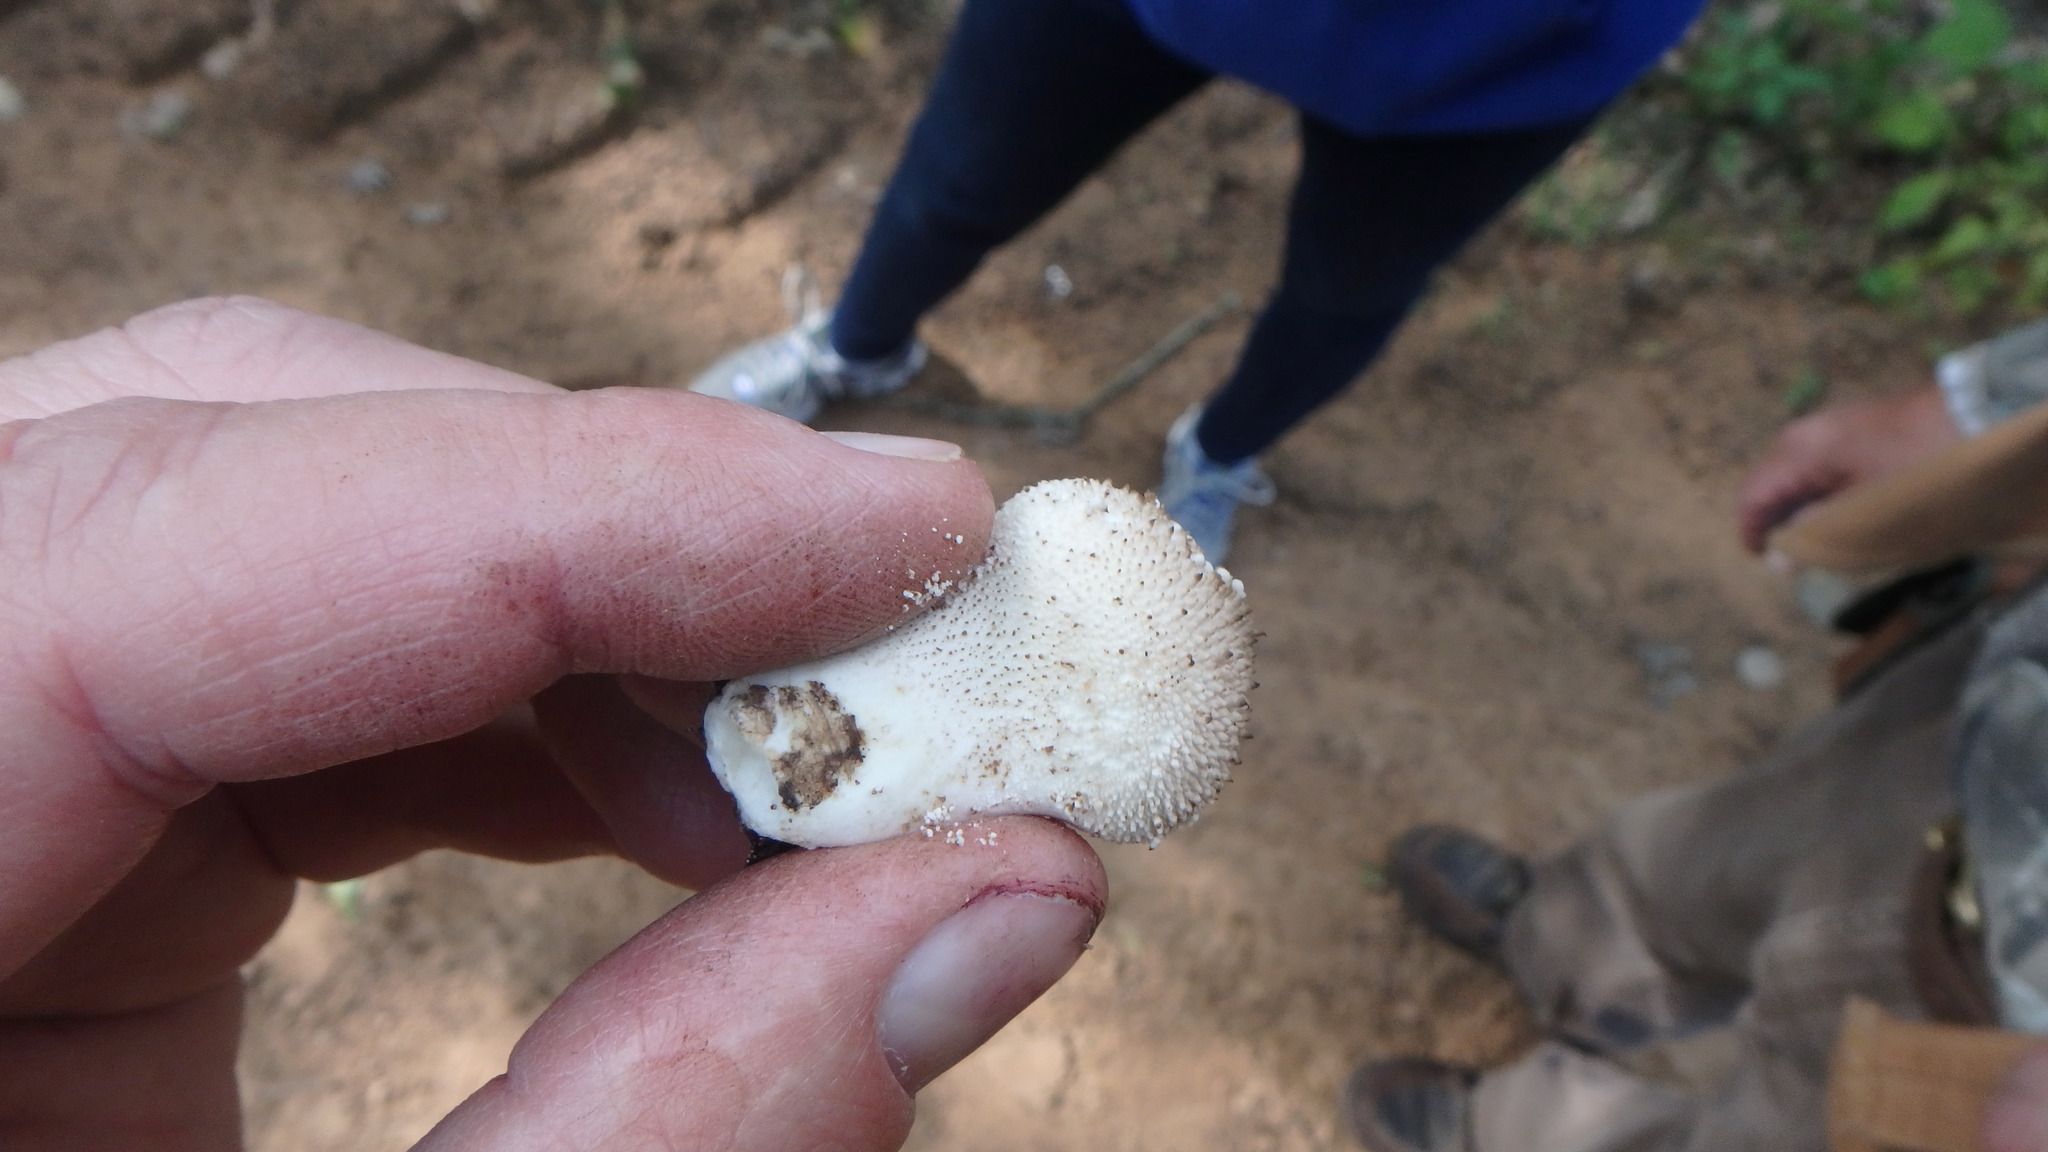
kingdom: Fungi
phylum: Basidiomycota
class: Agaricomycetes
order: Agaricales
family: Lycoperdaceae
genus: Lycoperdon
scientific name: Lycoperdon perlatum
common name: Common puffball
